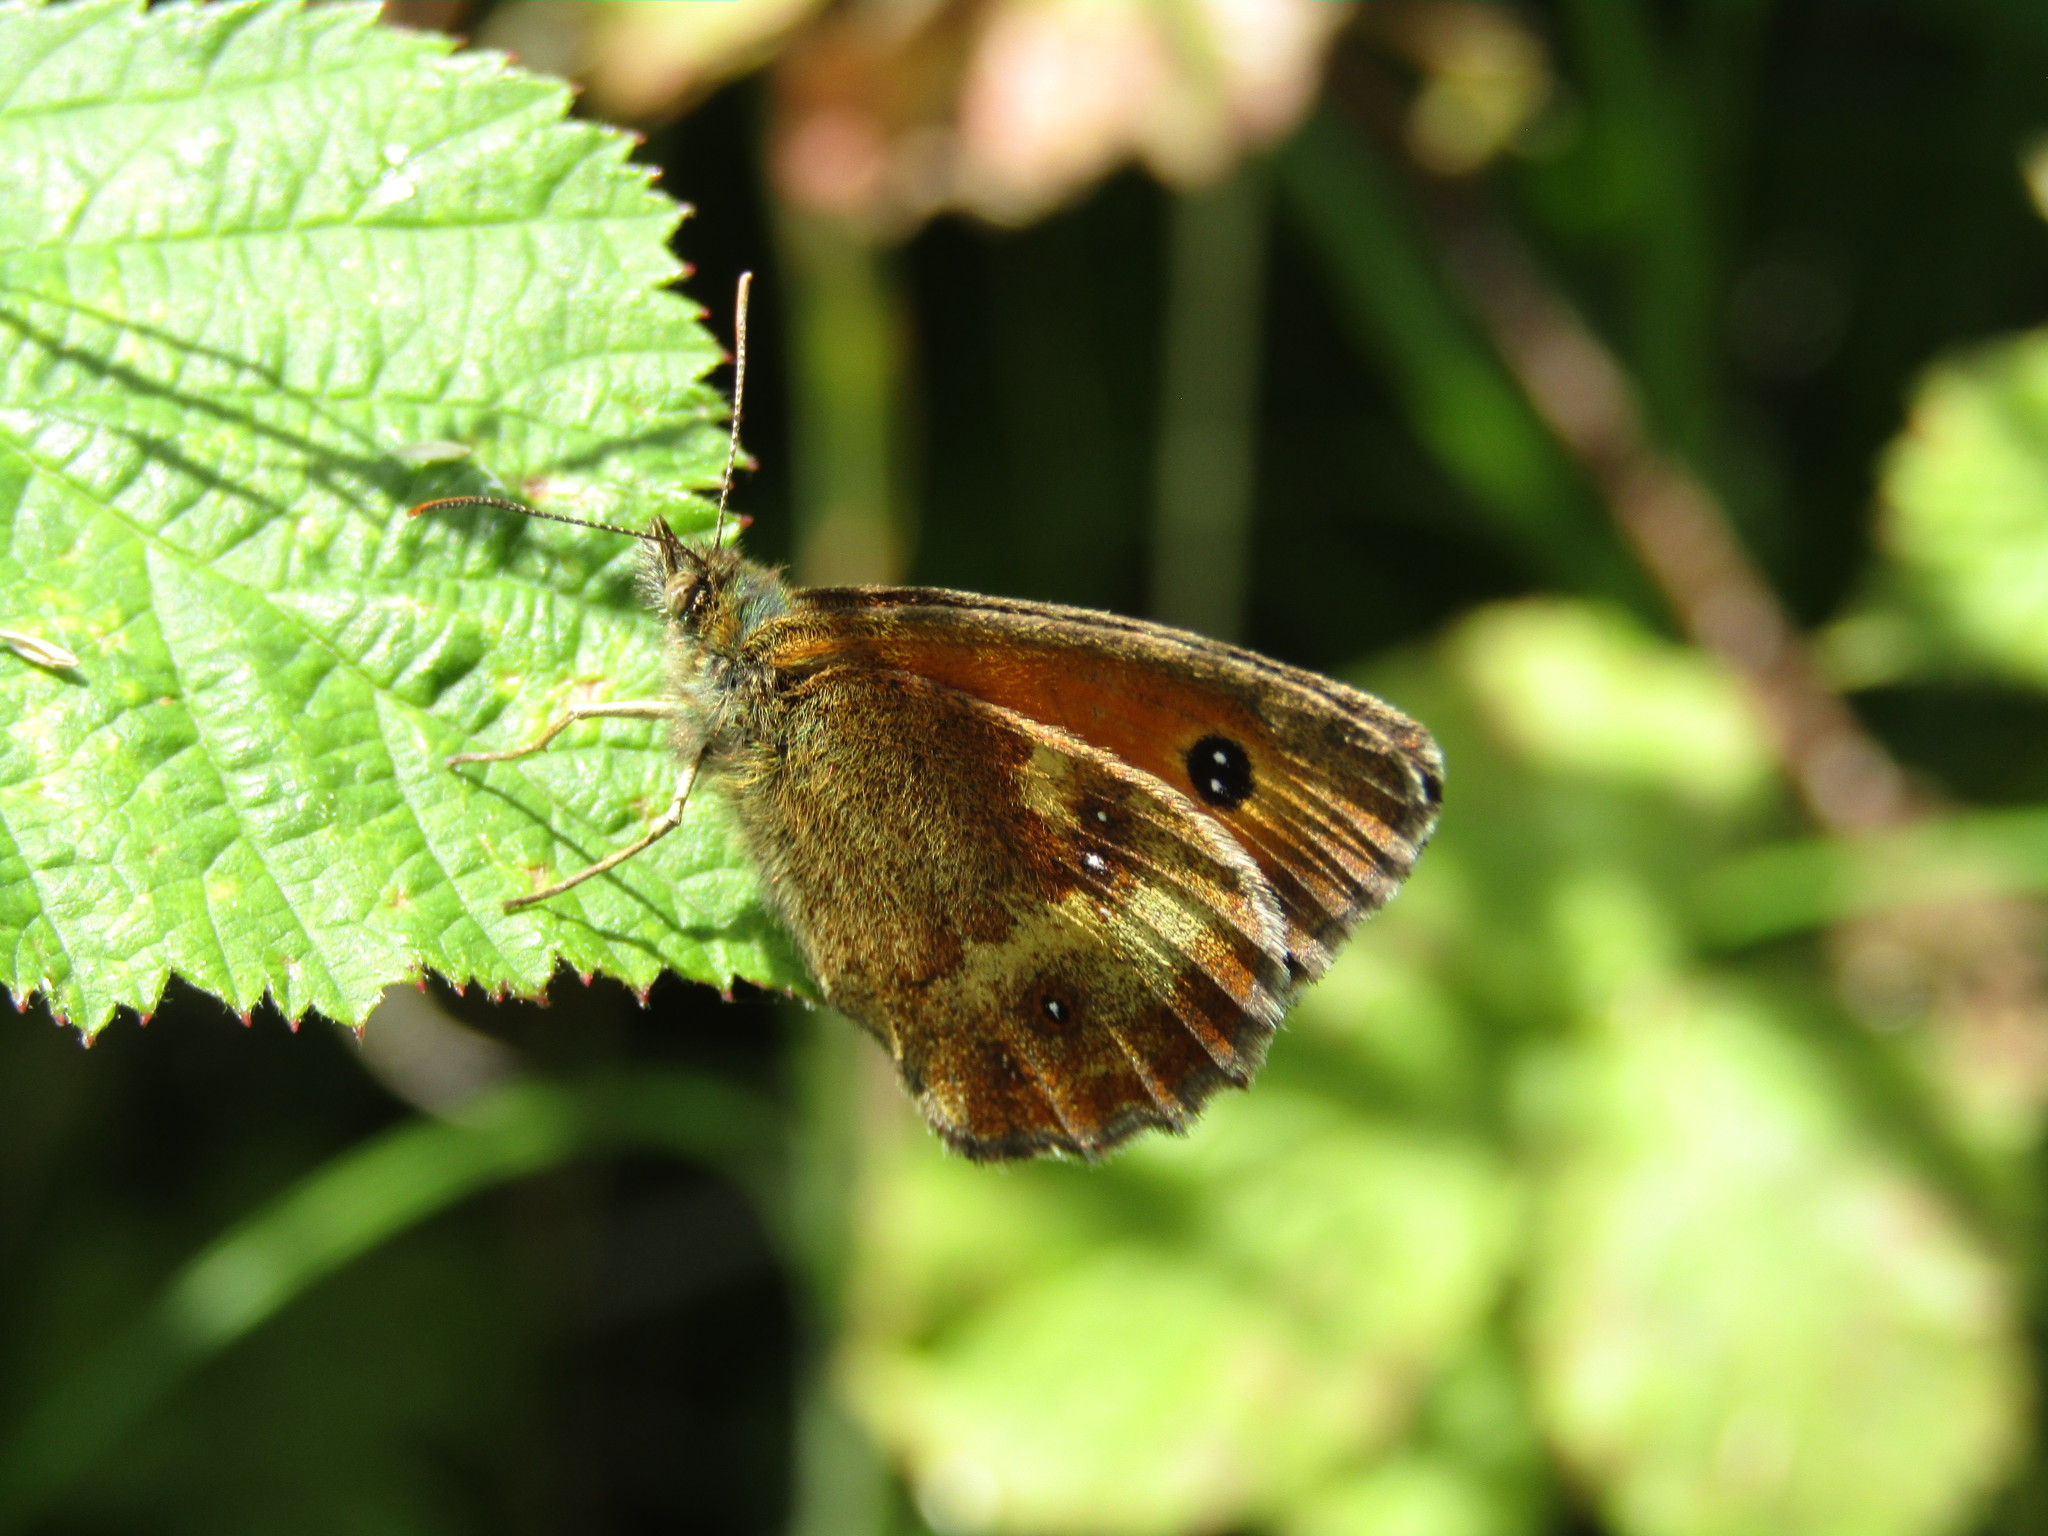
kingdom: Animalia
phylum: Arthropoda
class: Insecta
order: Lepidoptera
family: Nymphalidae
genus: Pyronia
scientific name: Pyronia tithonus
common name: Gatekeeper
